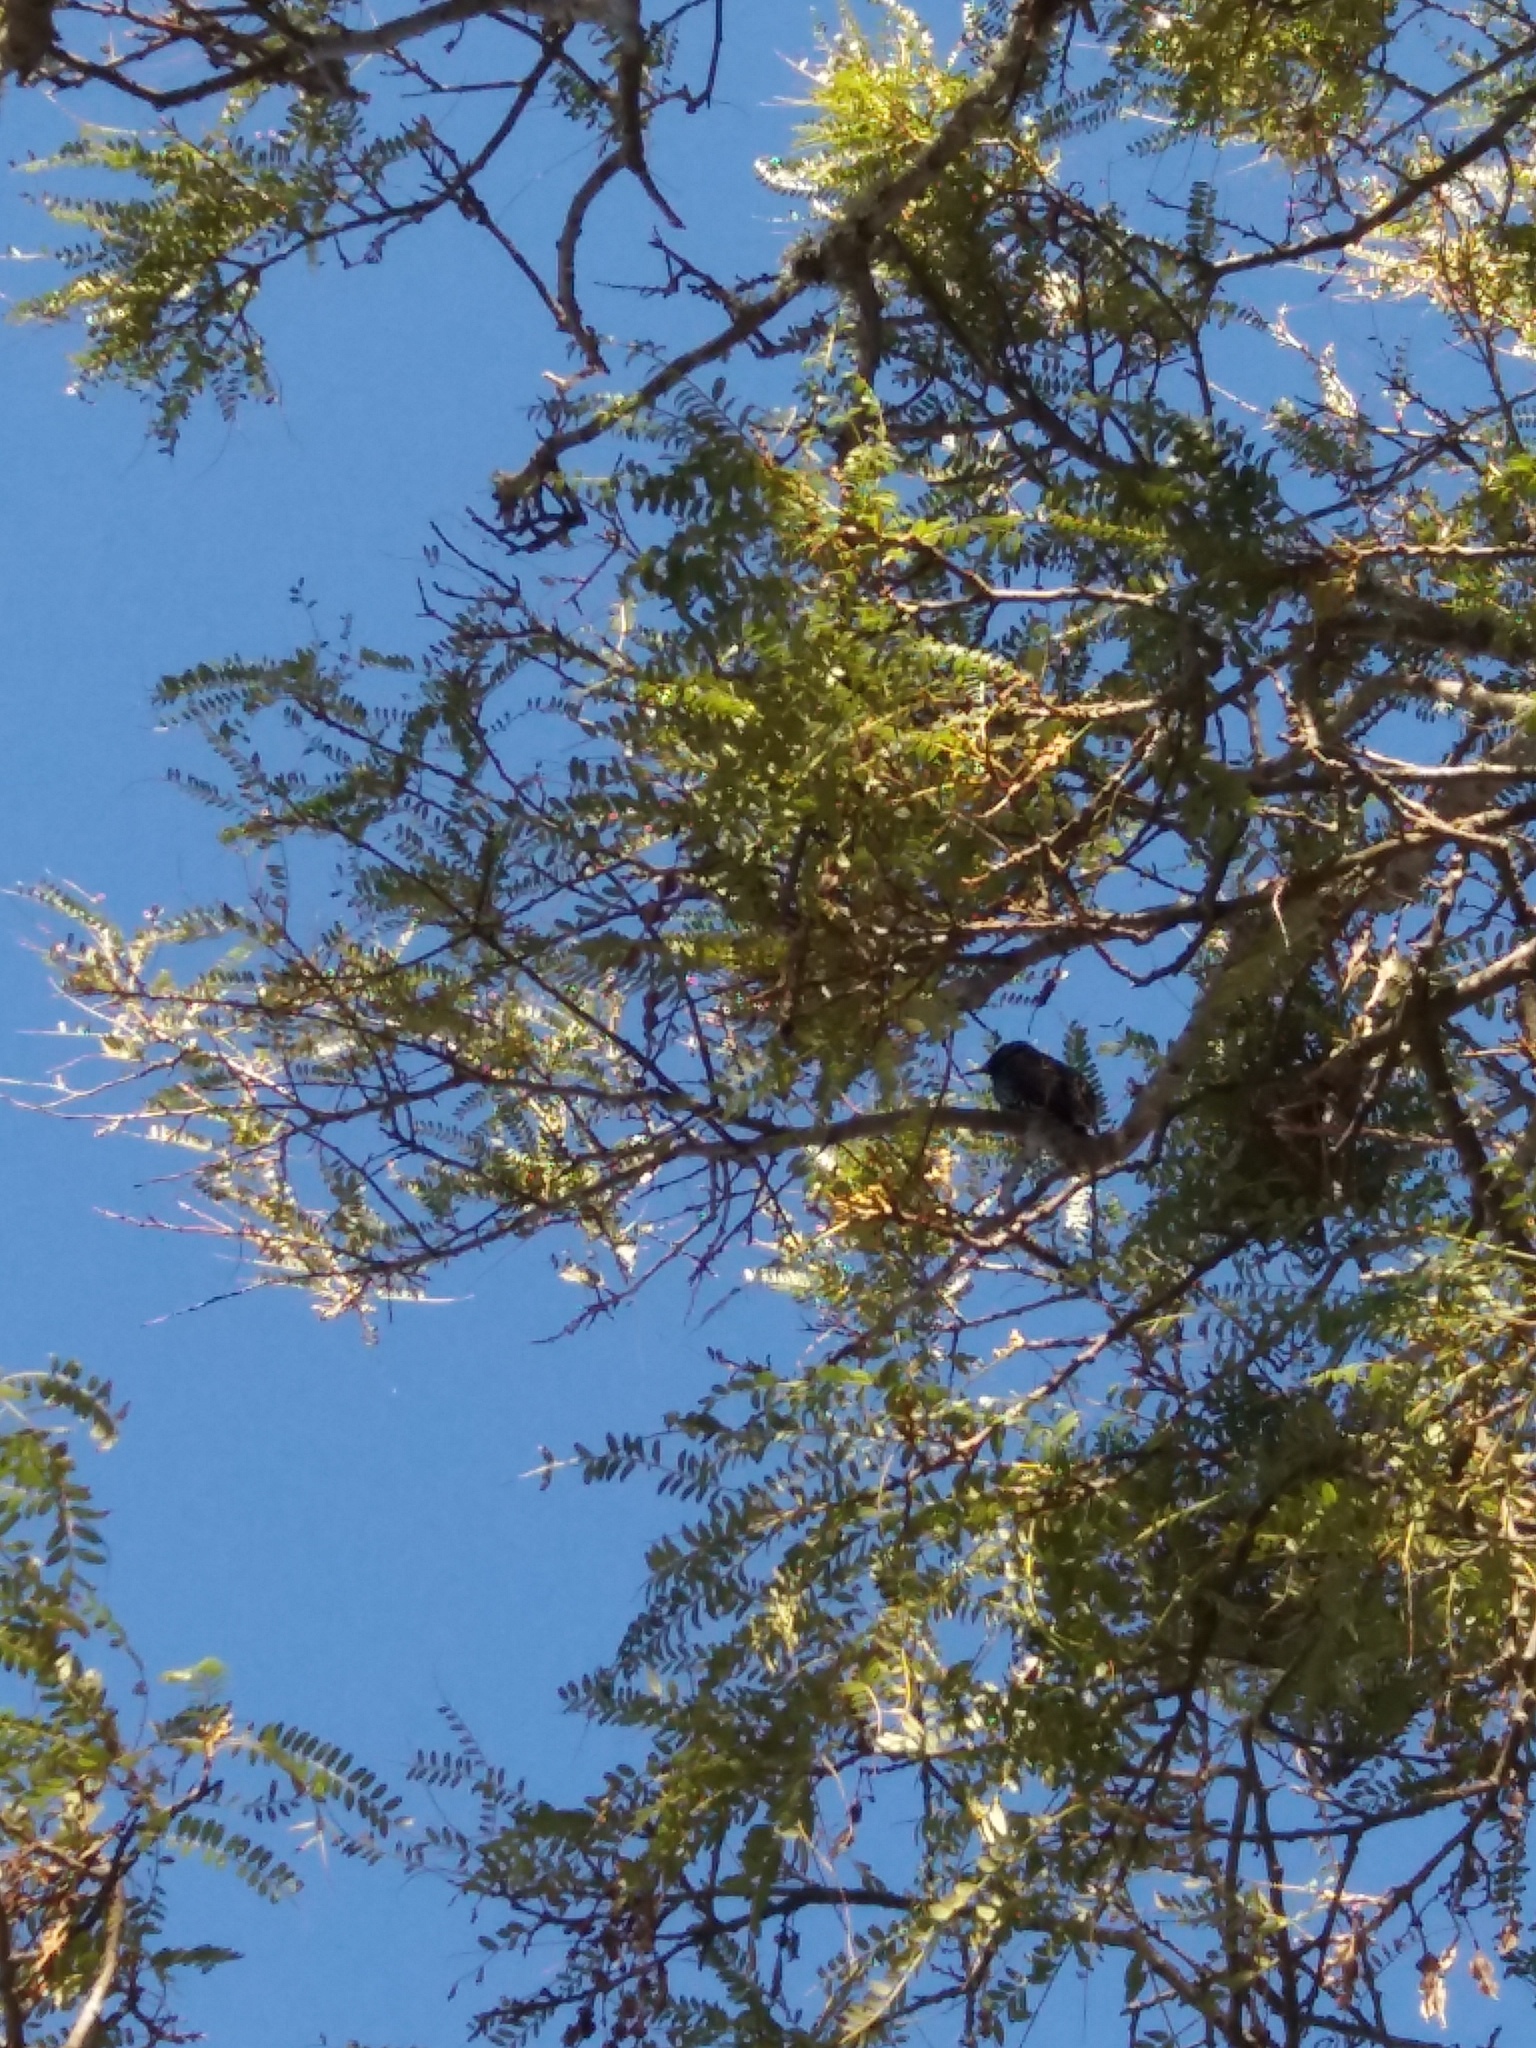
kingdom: Animalia
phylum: Chordata
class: Aves
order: Passeriformes
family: Sturnidae
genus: Sturnus
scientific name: Sturnus vulgaris
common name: Common starling
